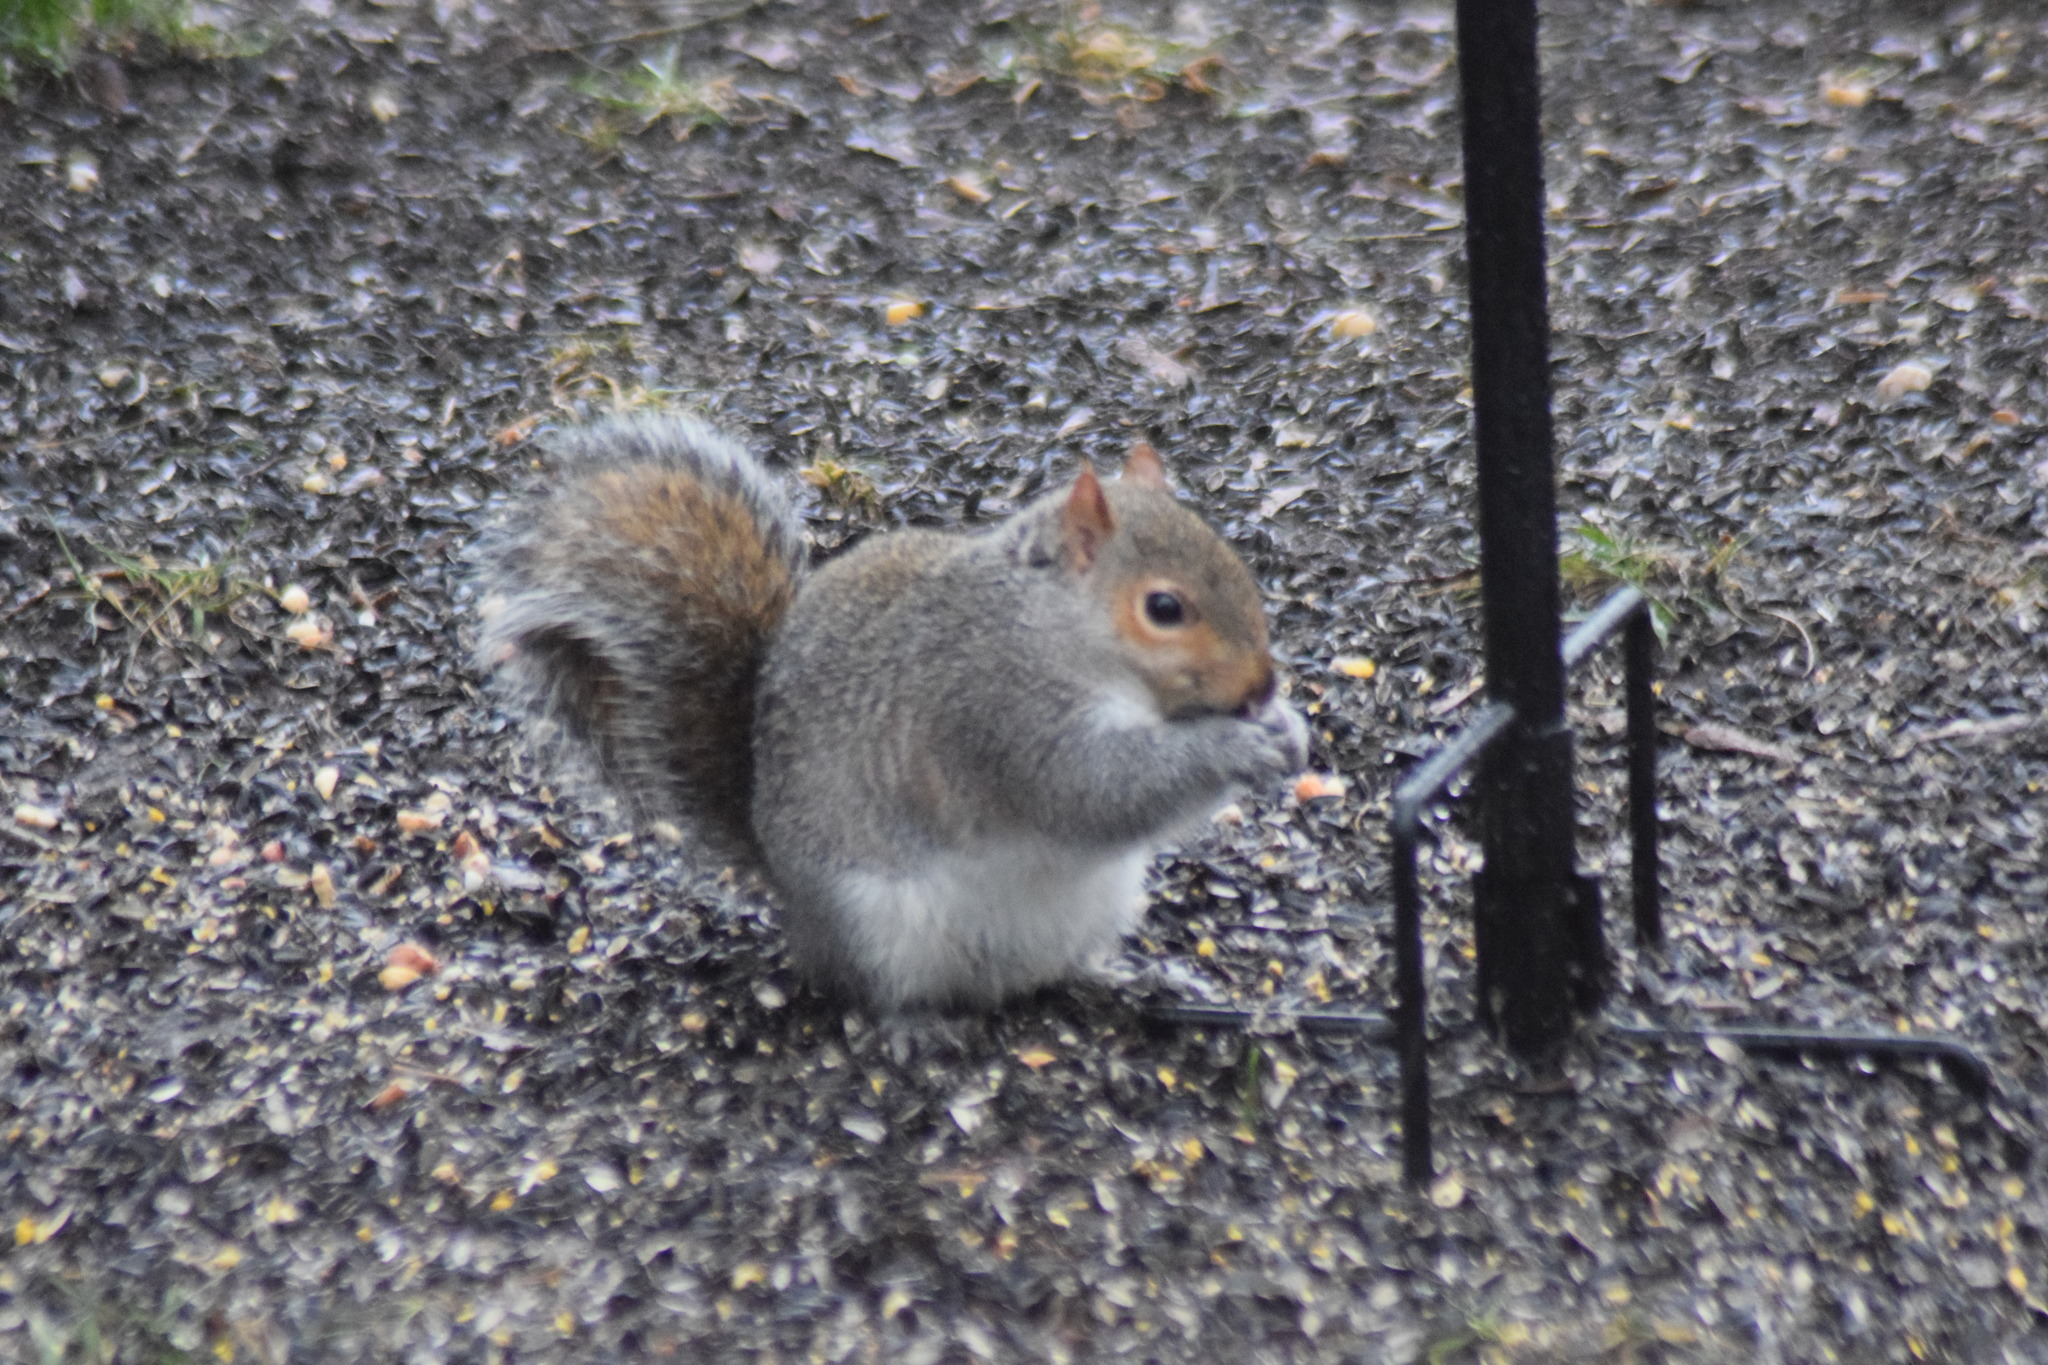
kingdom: Animalia
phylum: Chordata
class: Mammalia
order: Rodentia
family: Sciuridae
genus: Sciurus
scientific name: Sciurus carolinensis
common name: Eastern gray squirrel
